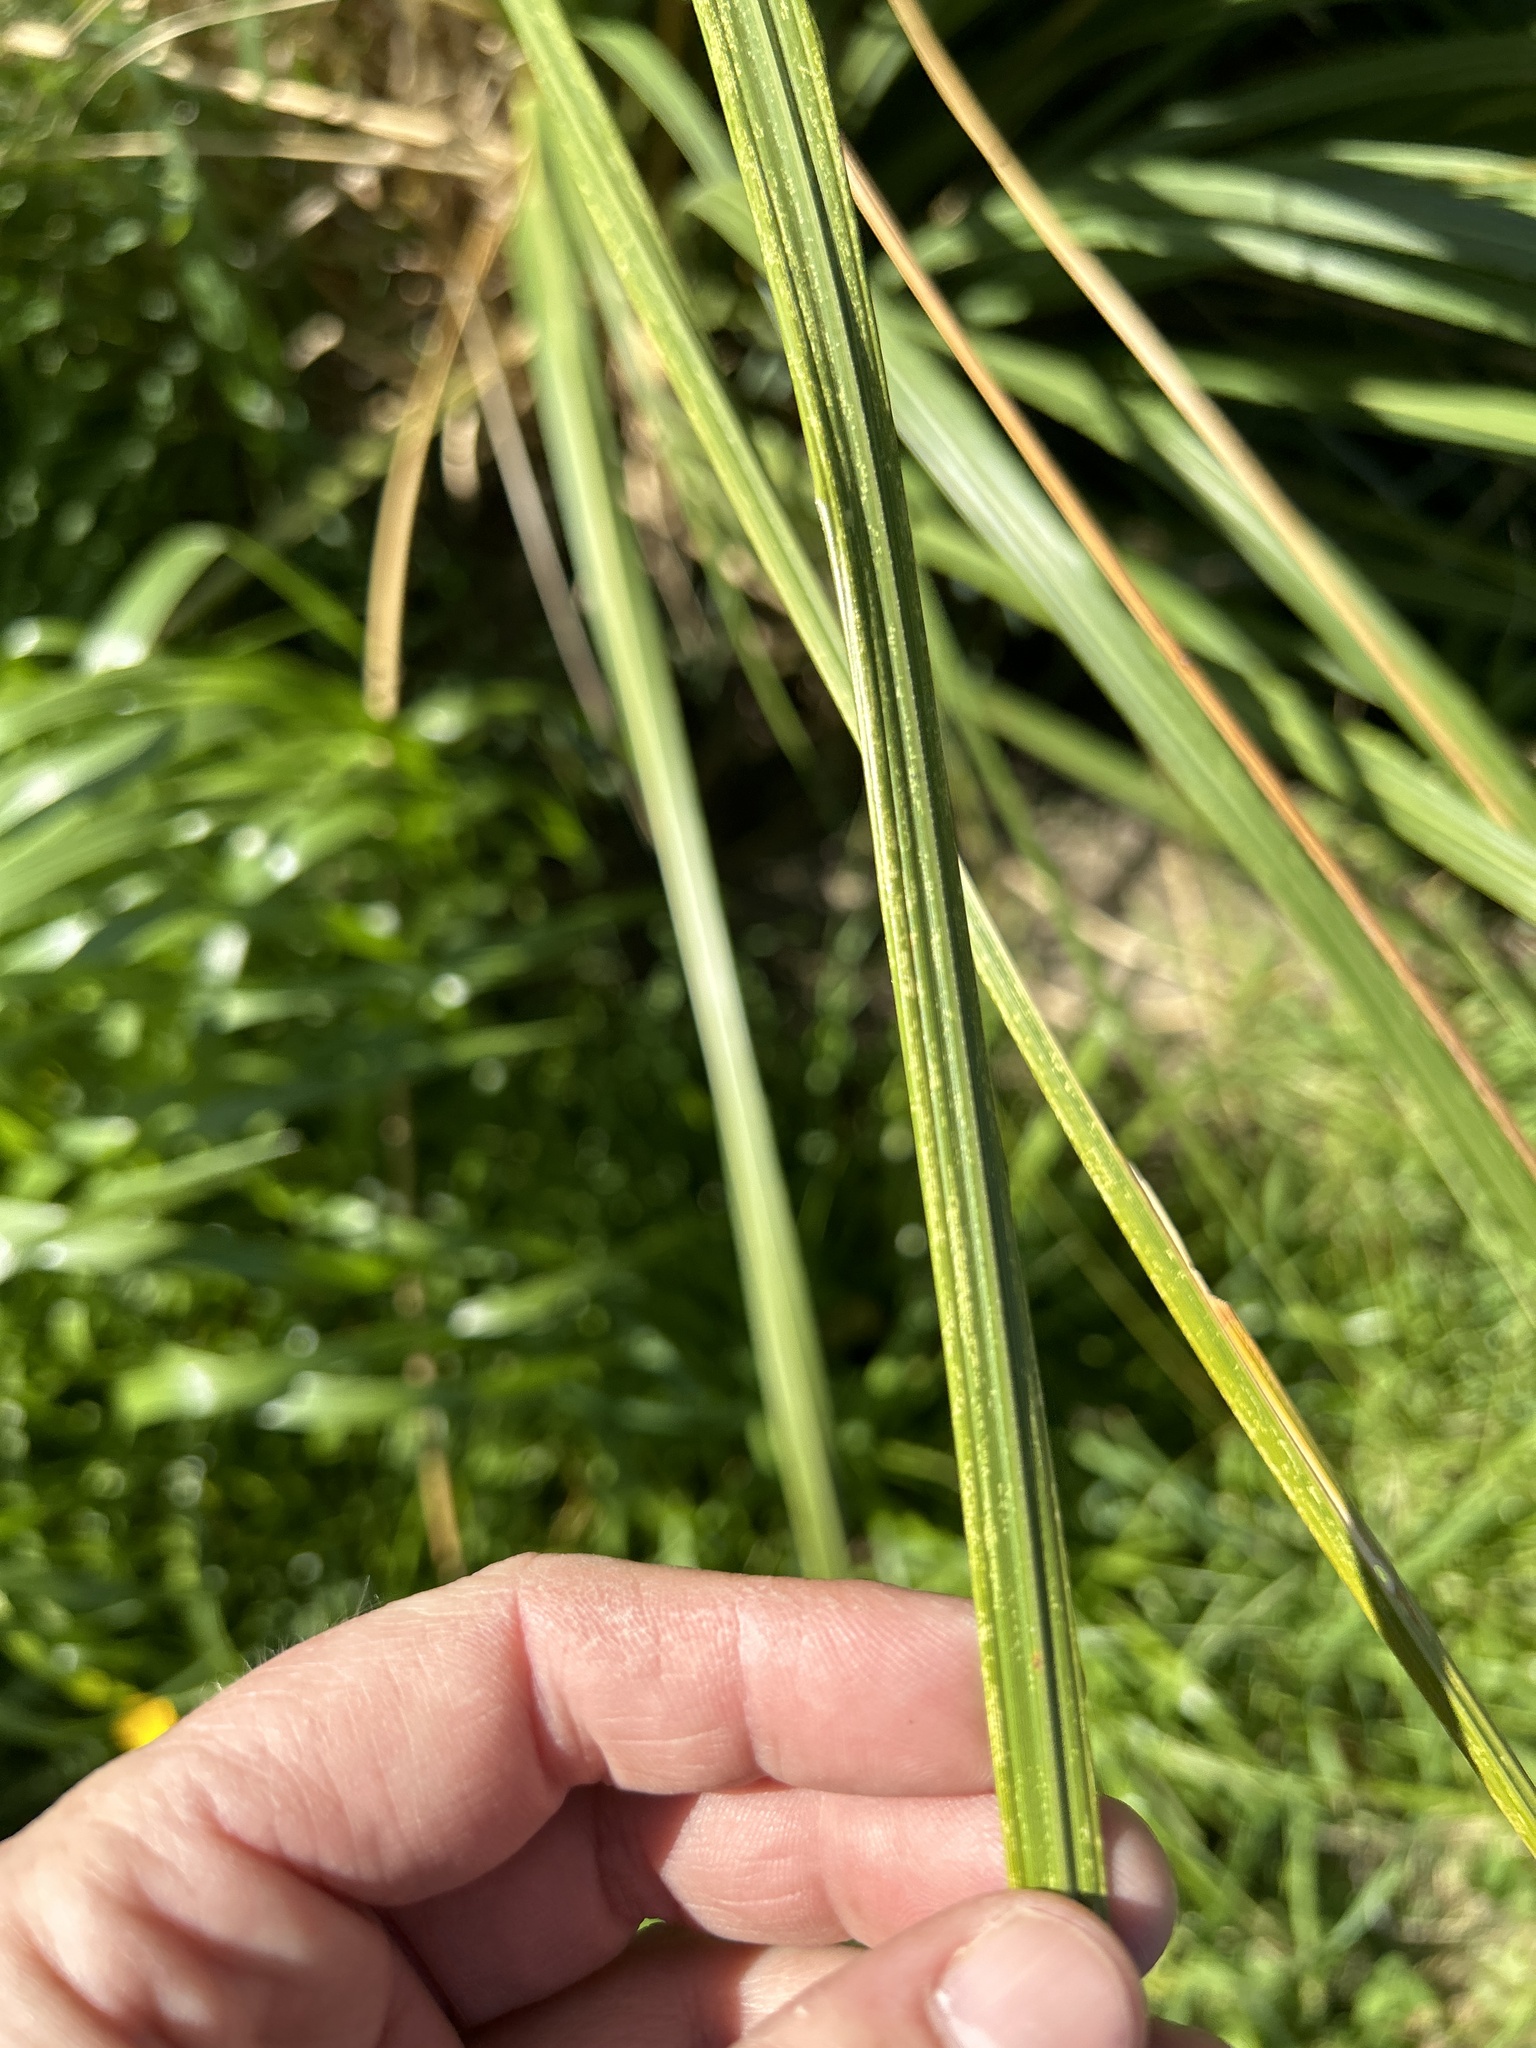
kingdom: Plantae
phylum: Tracheophyta
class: Liliopsida
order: Poales
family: Poaceae
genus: Austroderia
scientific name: Austroderia richardii
